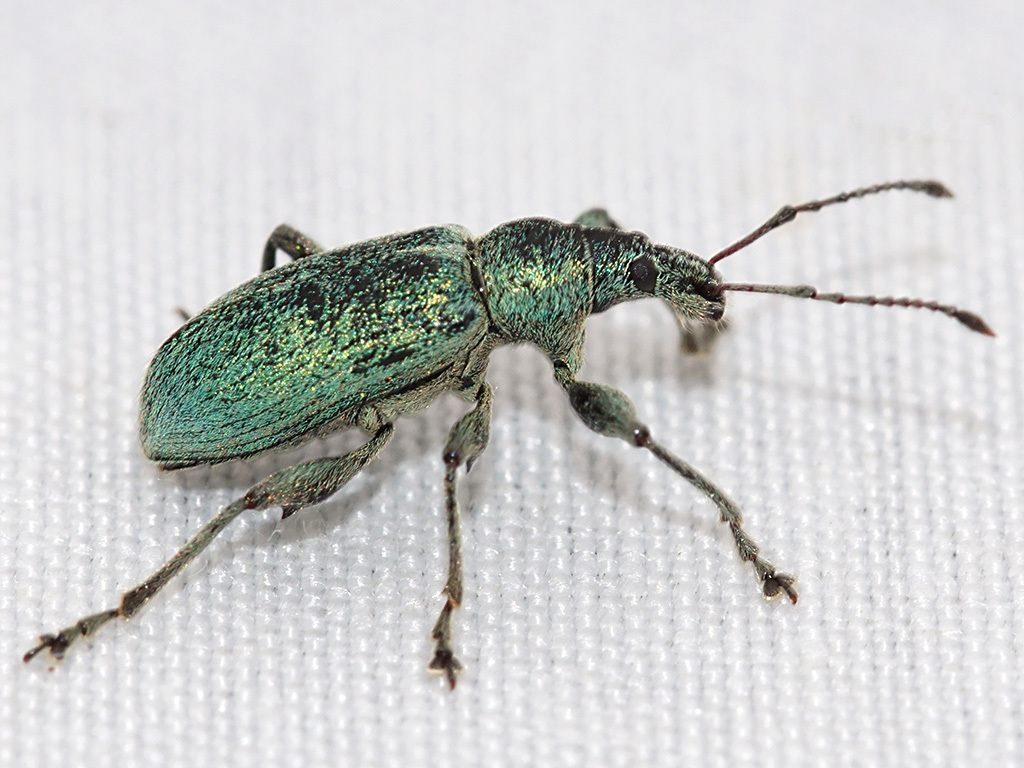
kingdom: Animalia
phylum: Arthropoda
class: Insecta
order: Coleoptera
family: Curculionidae
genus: Phyllobius
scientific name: Phyllobius pomaceus
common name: Green nettle weevil
